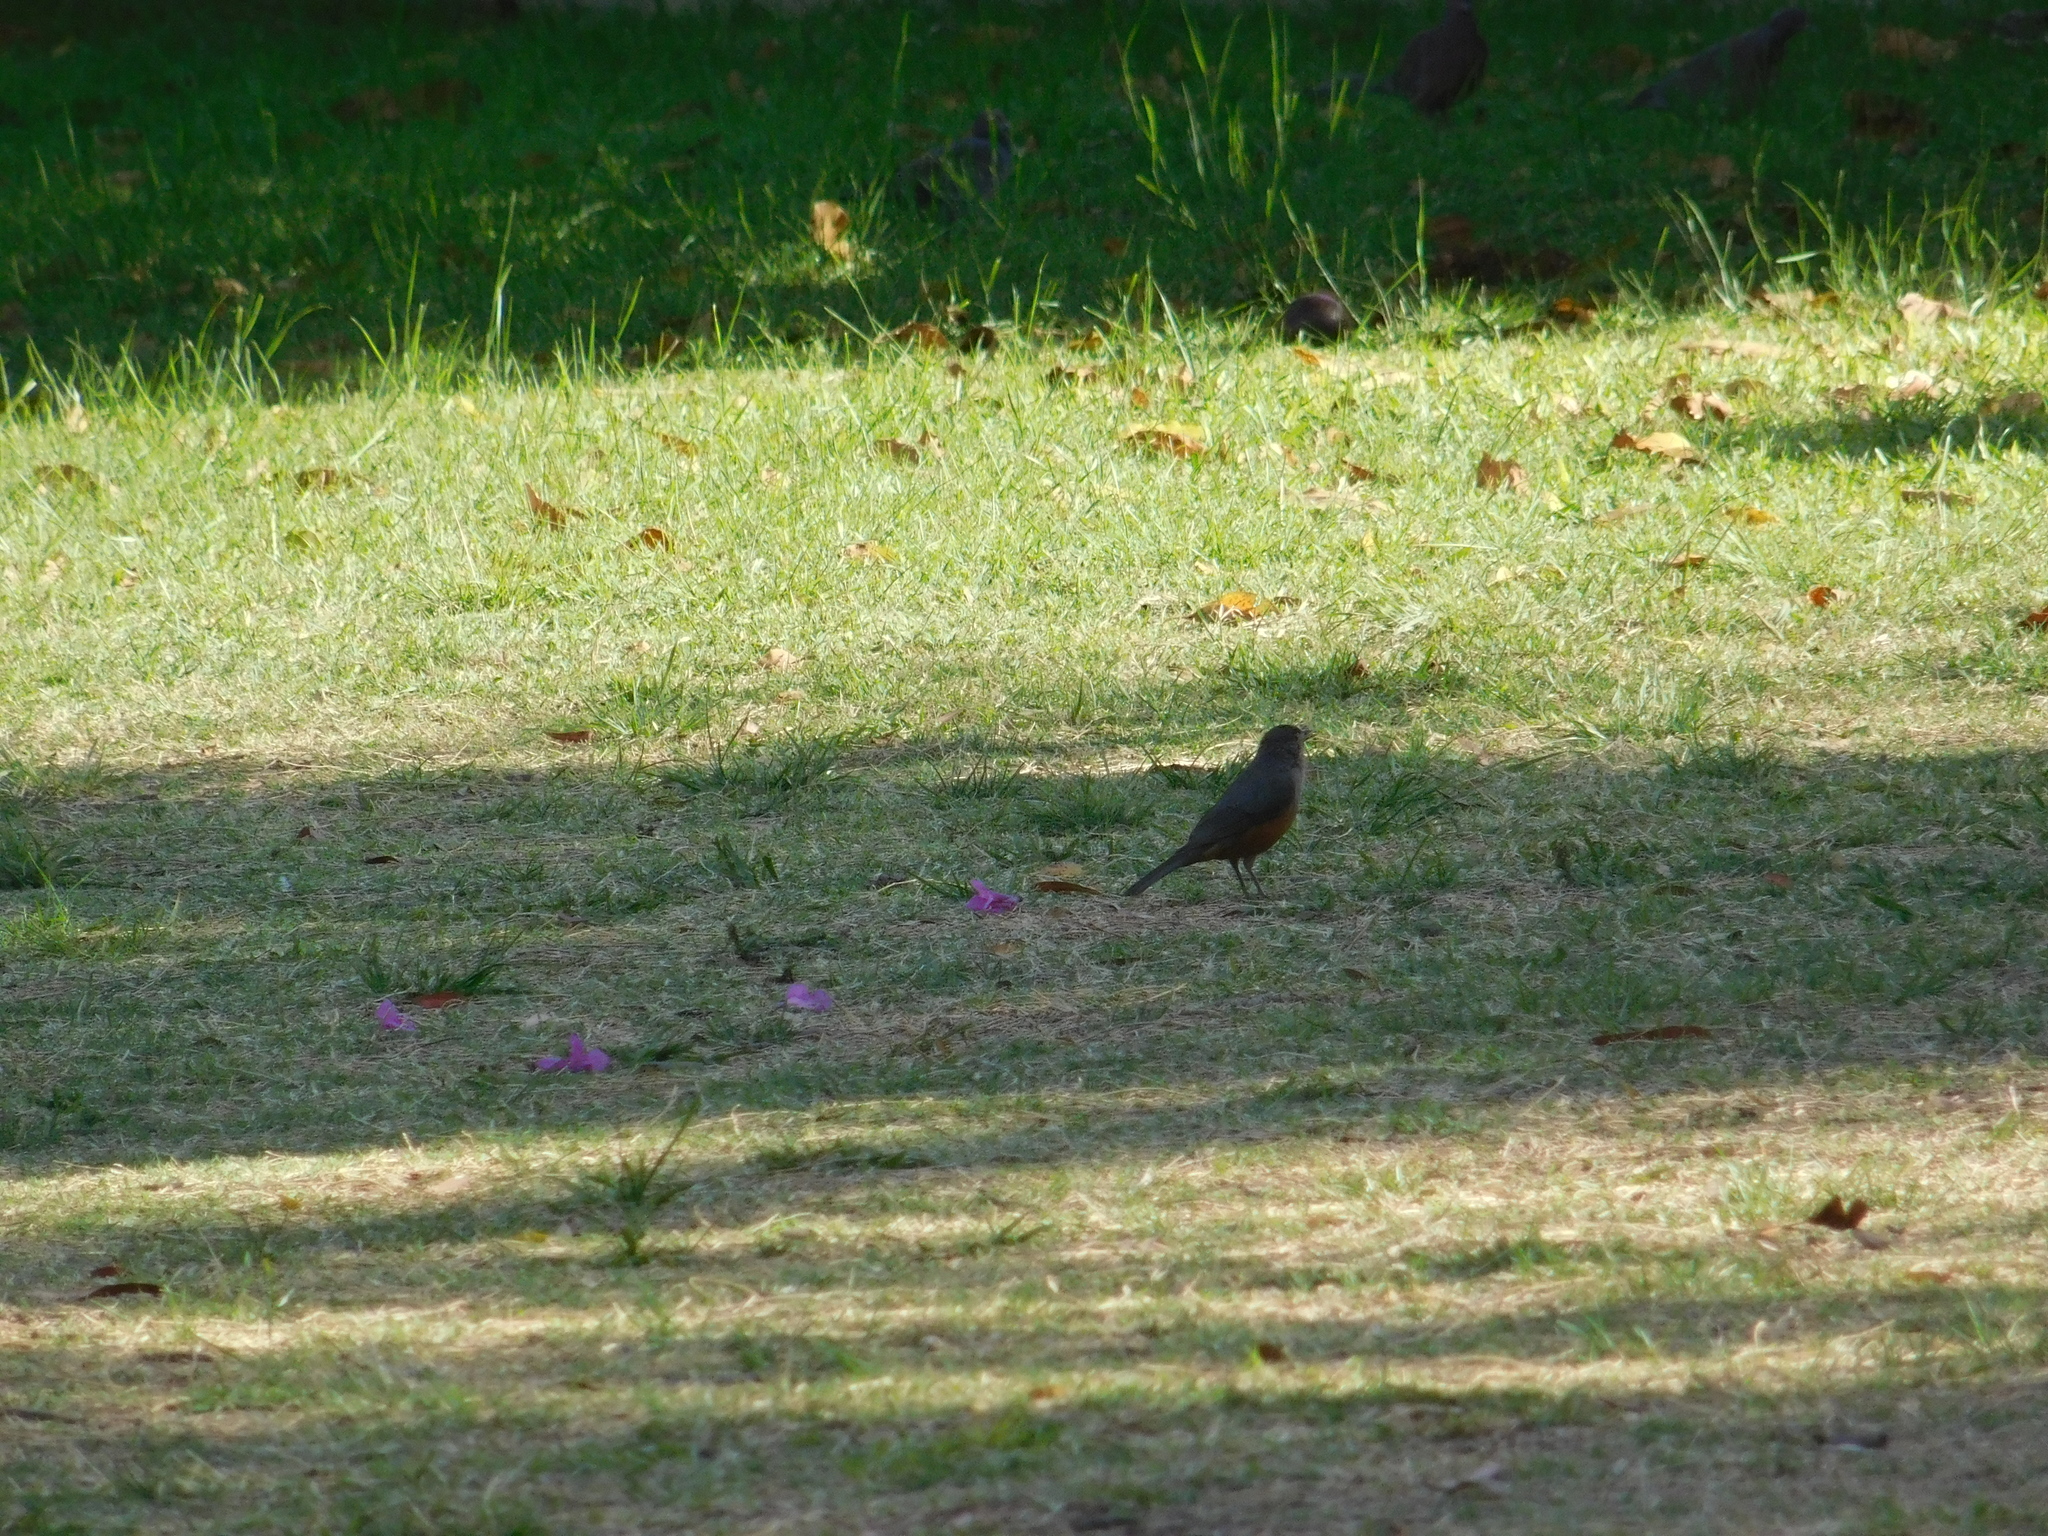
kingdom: Animalia
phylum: Chordata
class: Aves
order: Passeriformes
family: Turdidae
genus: Turdus
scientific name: Turdus rufiventris
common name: Rufous-bellied thrush
